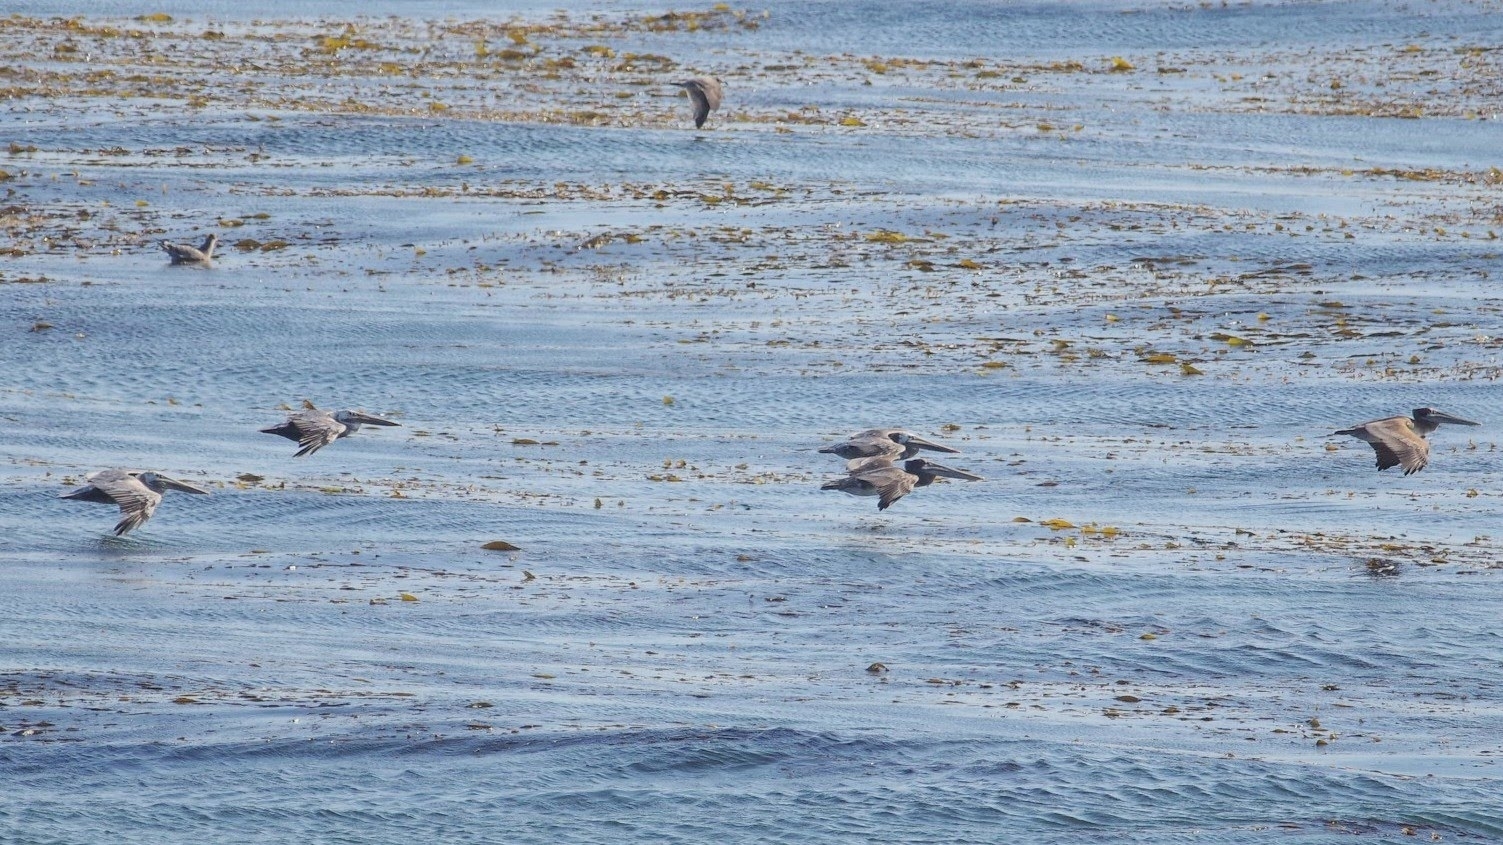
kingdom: Animalia
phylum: Chordata
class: Aves
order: Pelecaniformes
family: Pelecanidae
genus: Pelecanus
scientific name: Pelecanus occidentalis
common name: Brown pelican
